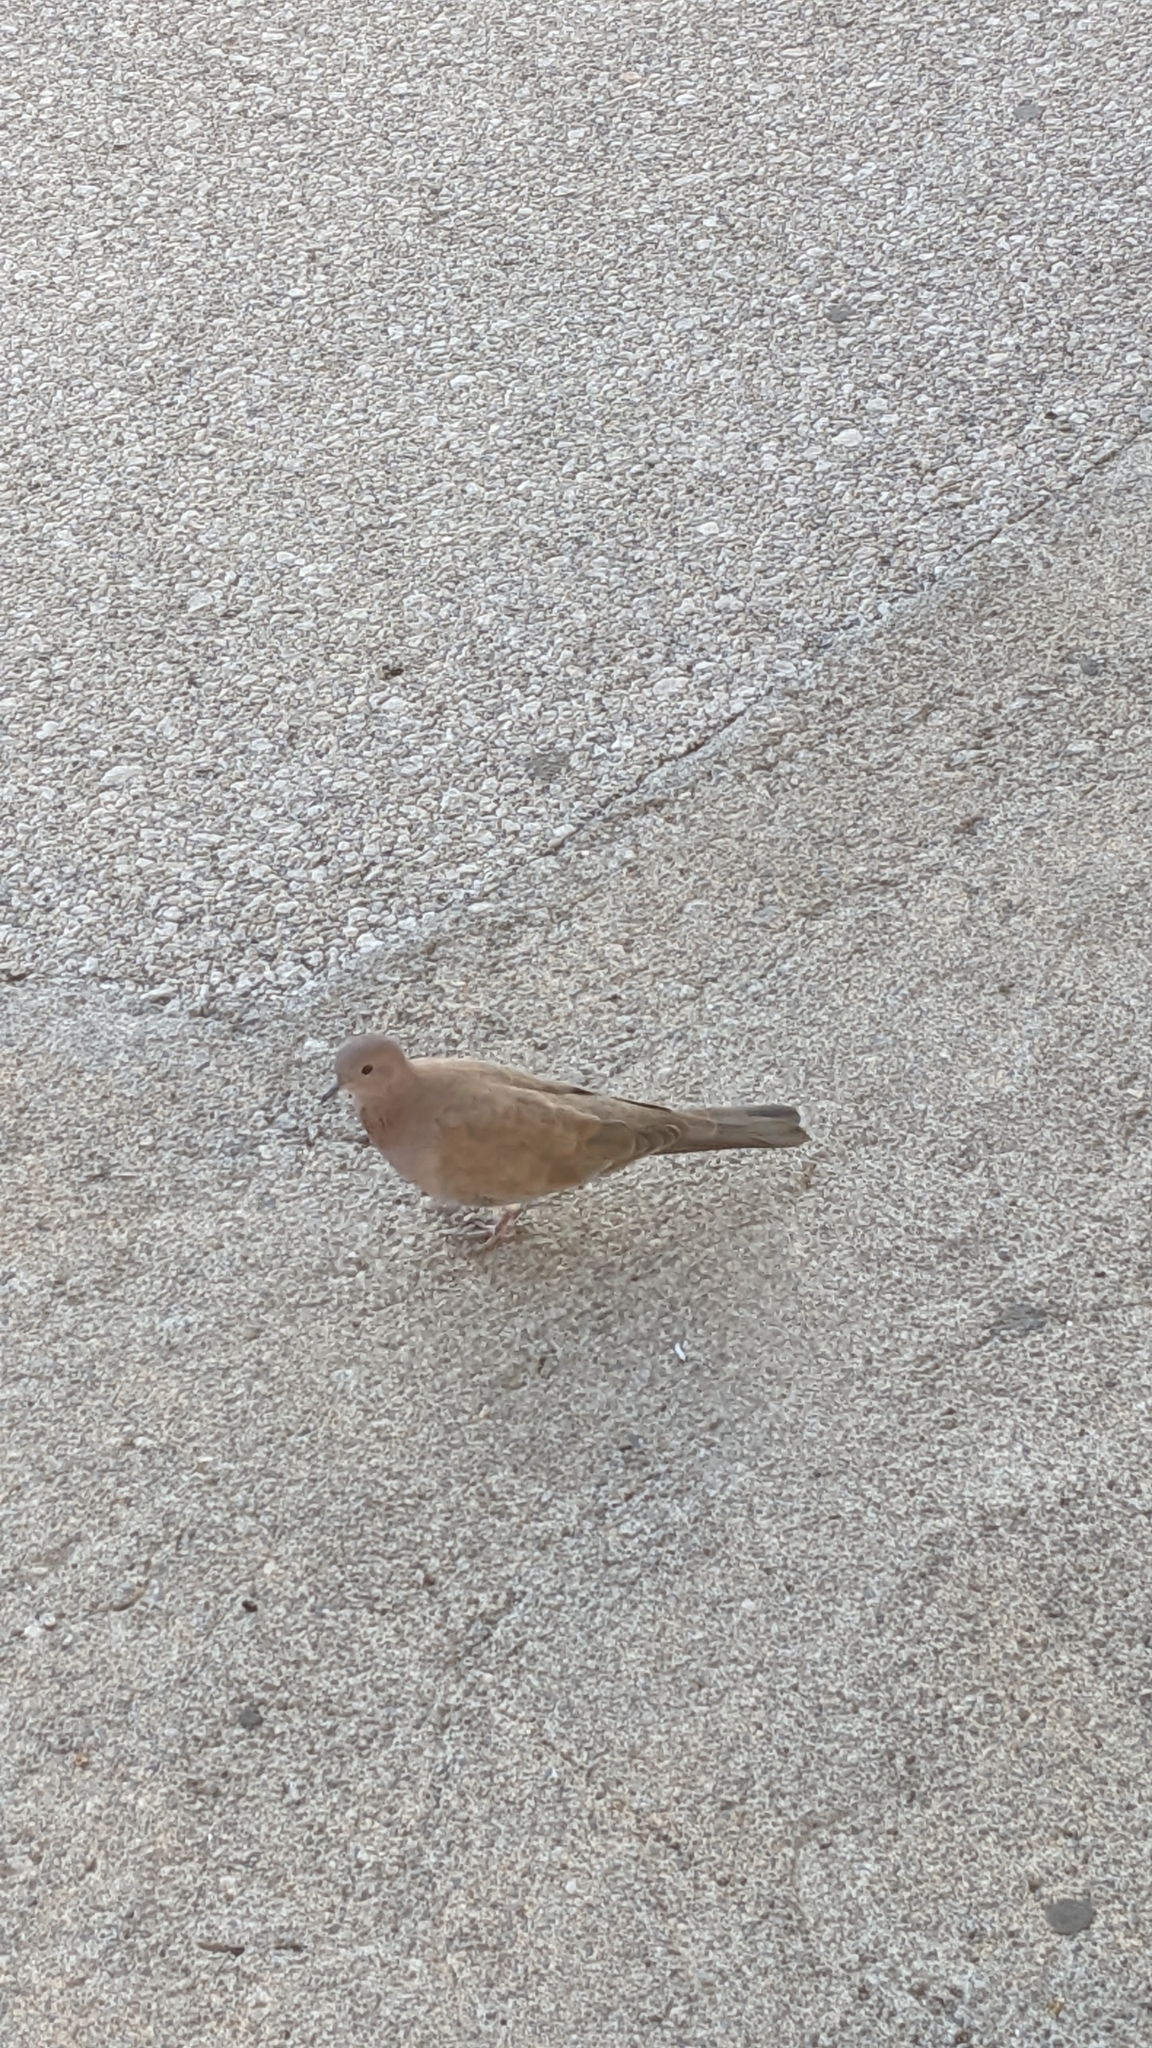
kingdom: Animalia
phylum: Chordata
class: Aves
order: Columbiformes
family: Columbidae
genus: Spilopelia
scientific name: Spilopelia senegalensis
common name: Laughing dove
